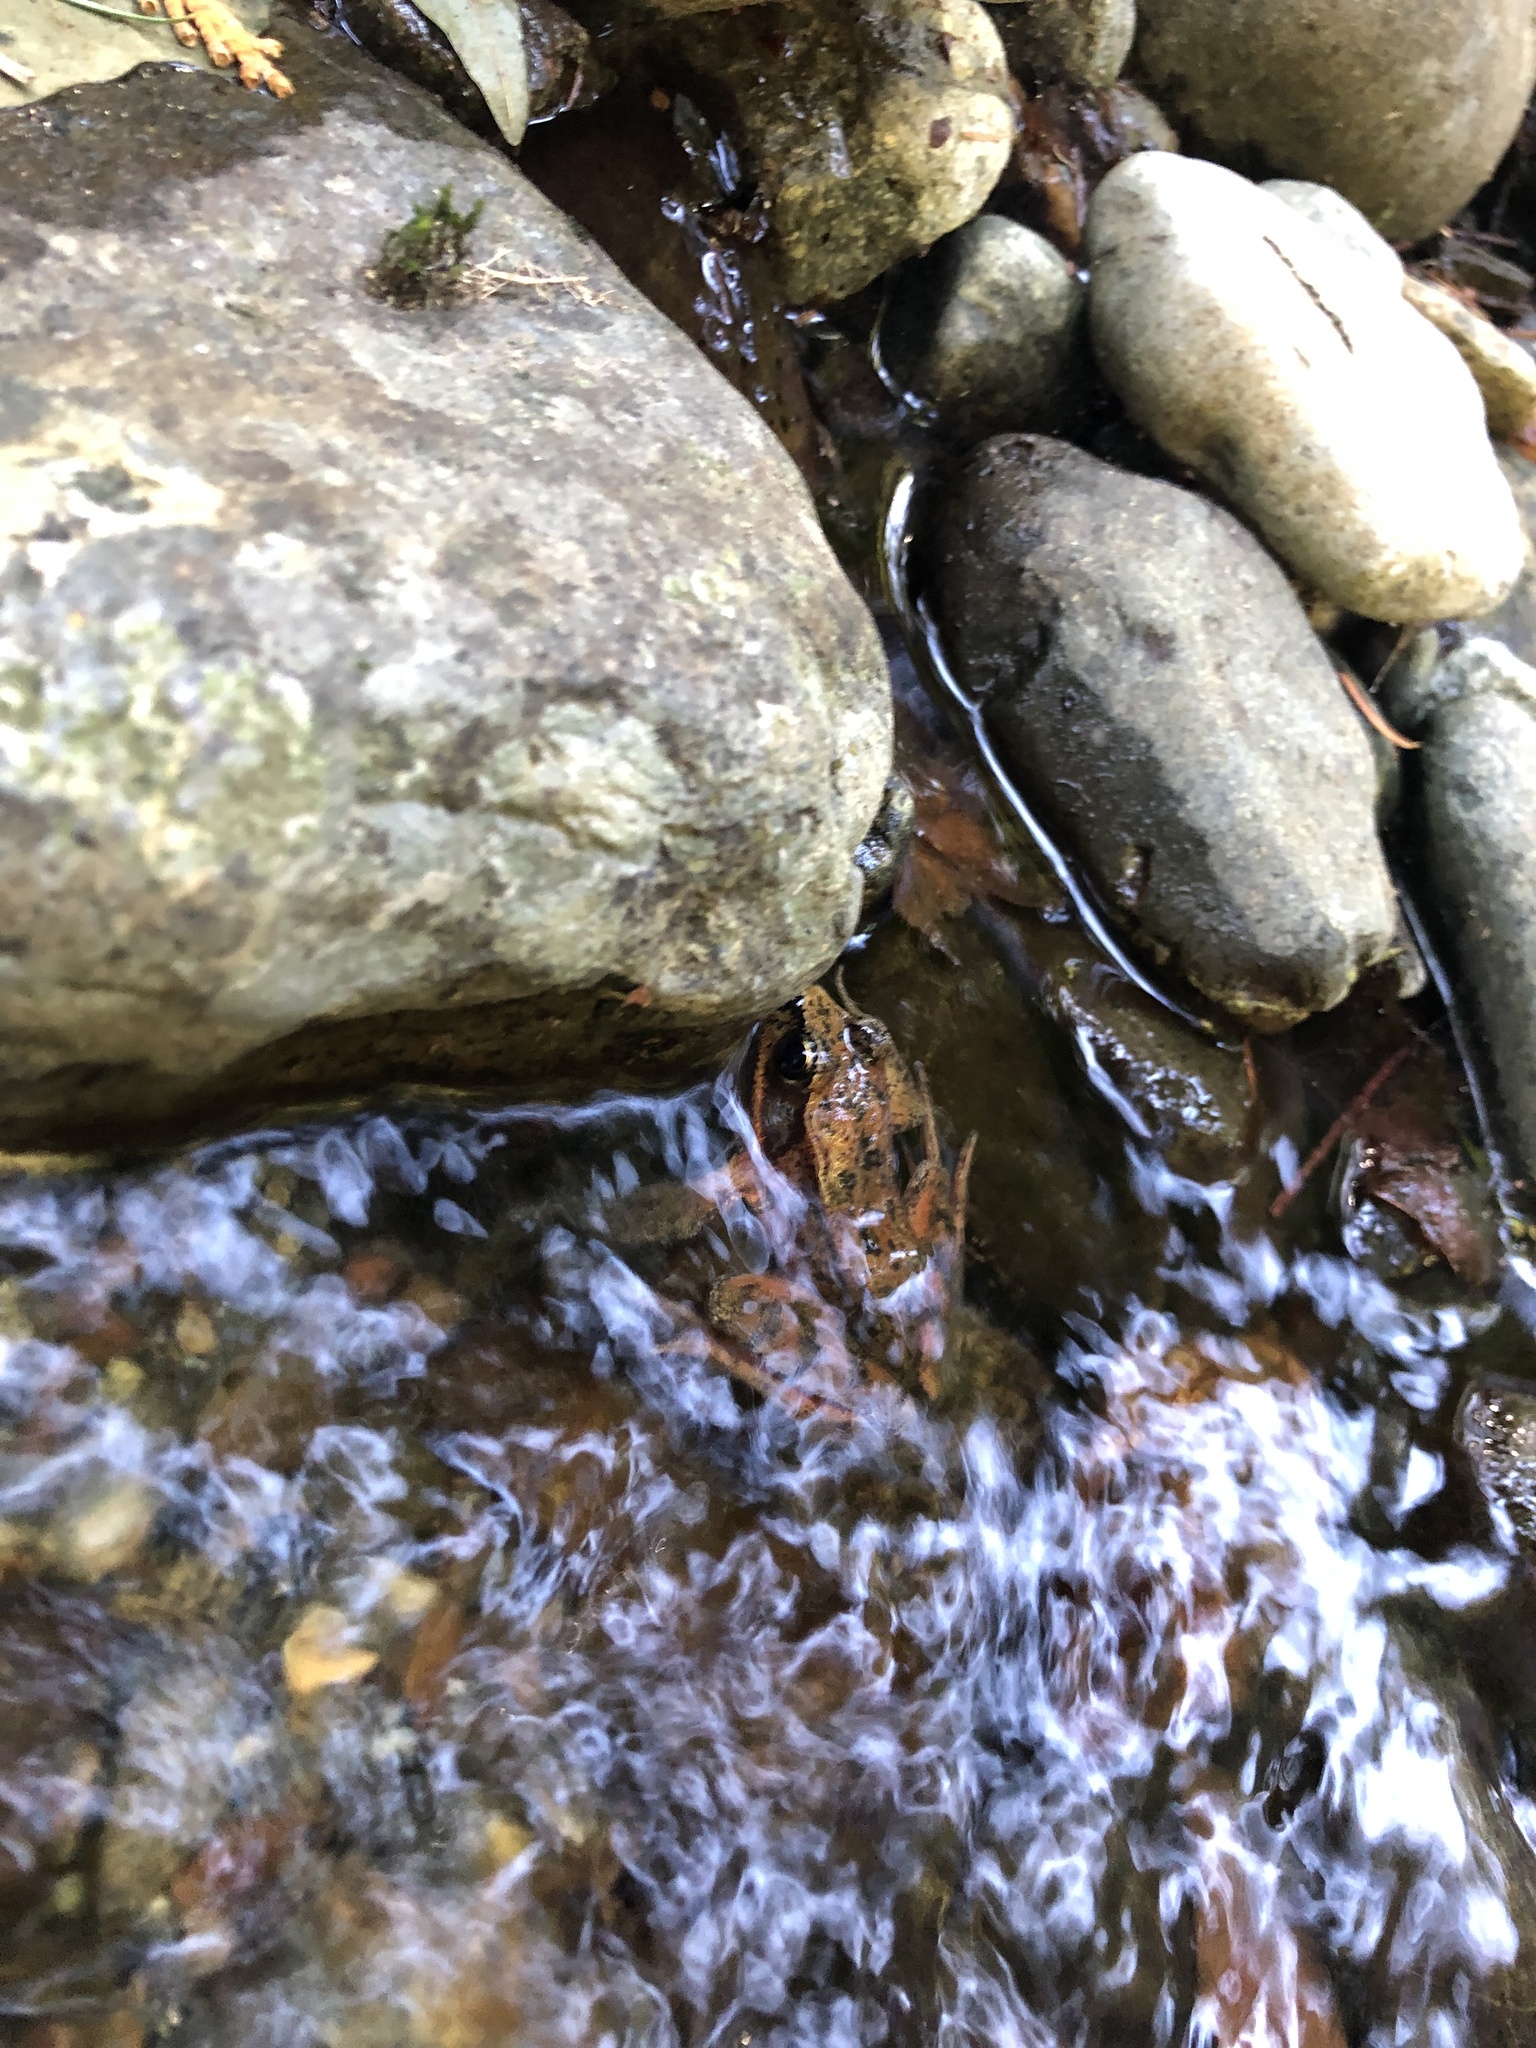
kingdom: Animalia
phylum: Chordata
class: Amphibia
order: Anura
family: Ranidae
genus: Rana
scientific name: Rana aurora
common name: Red-legged frog
